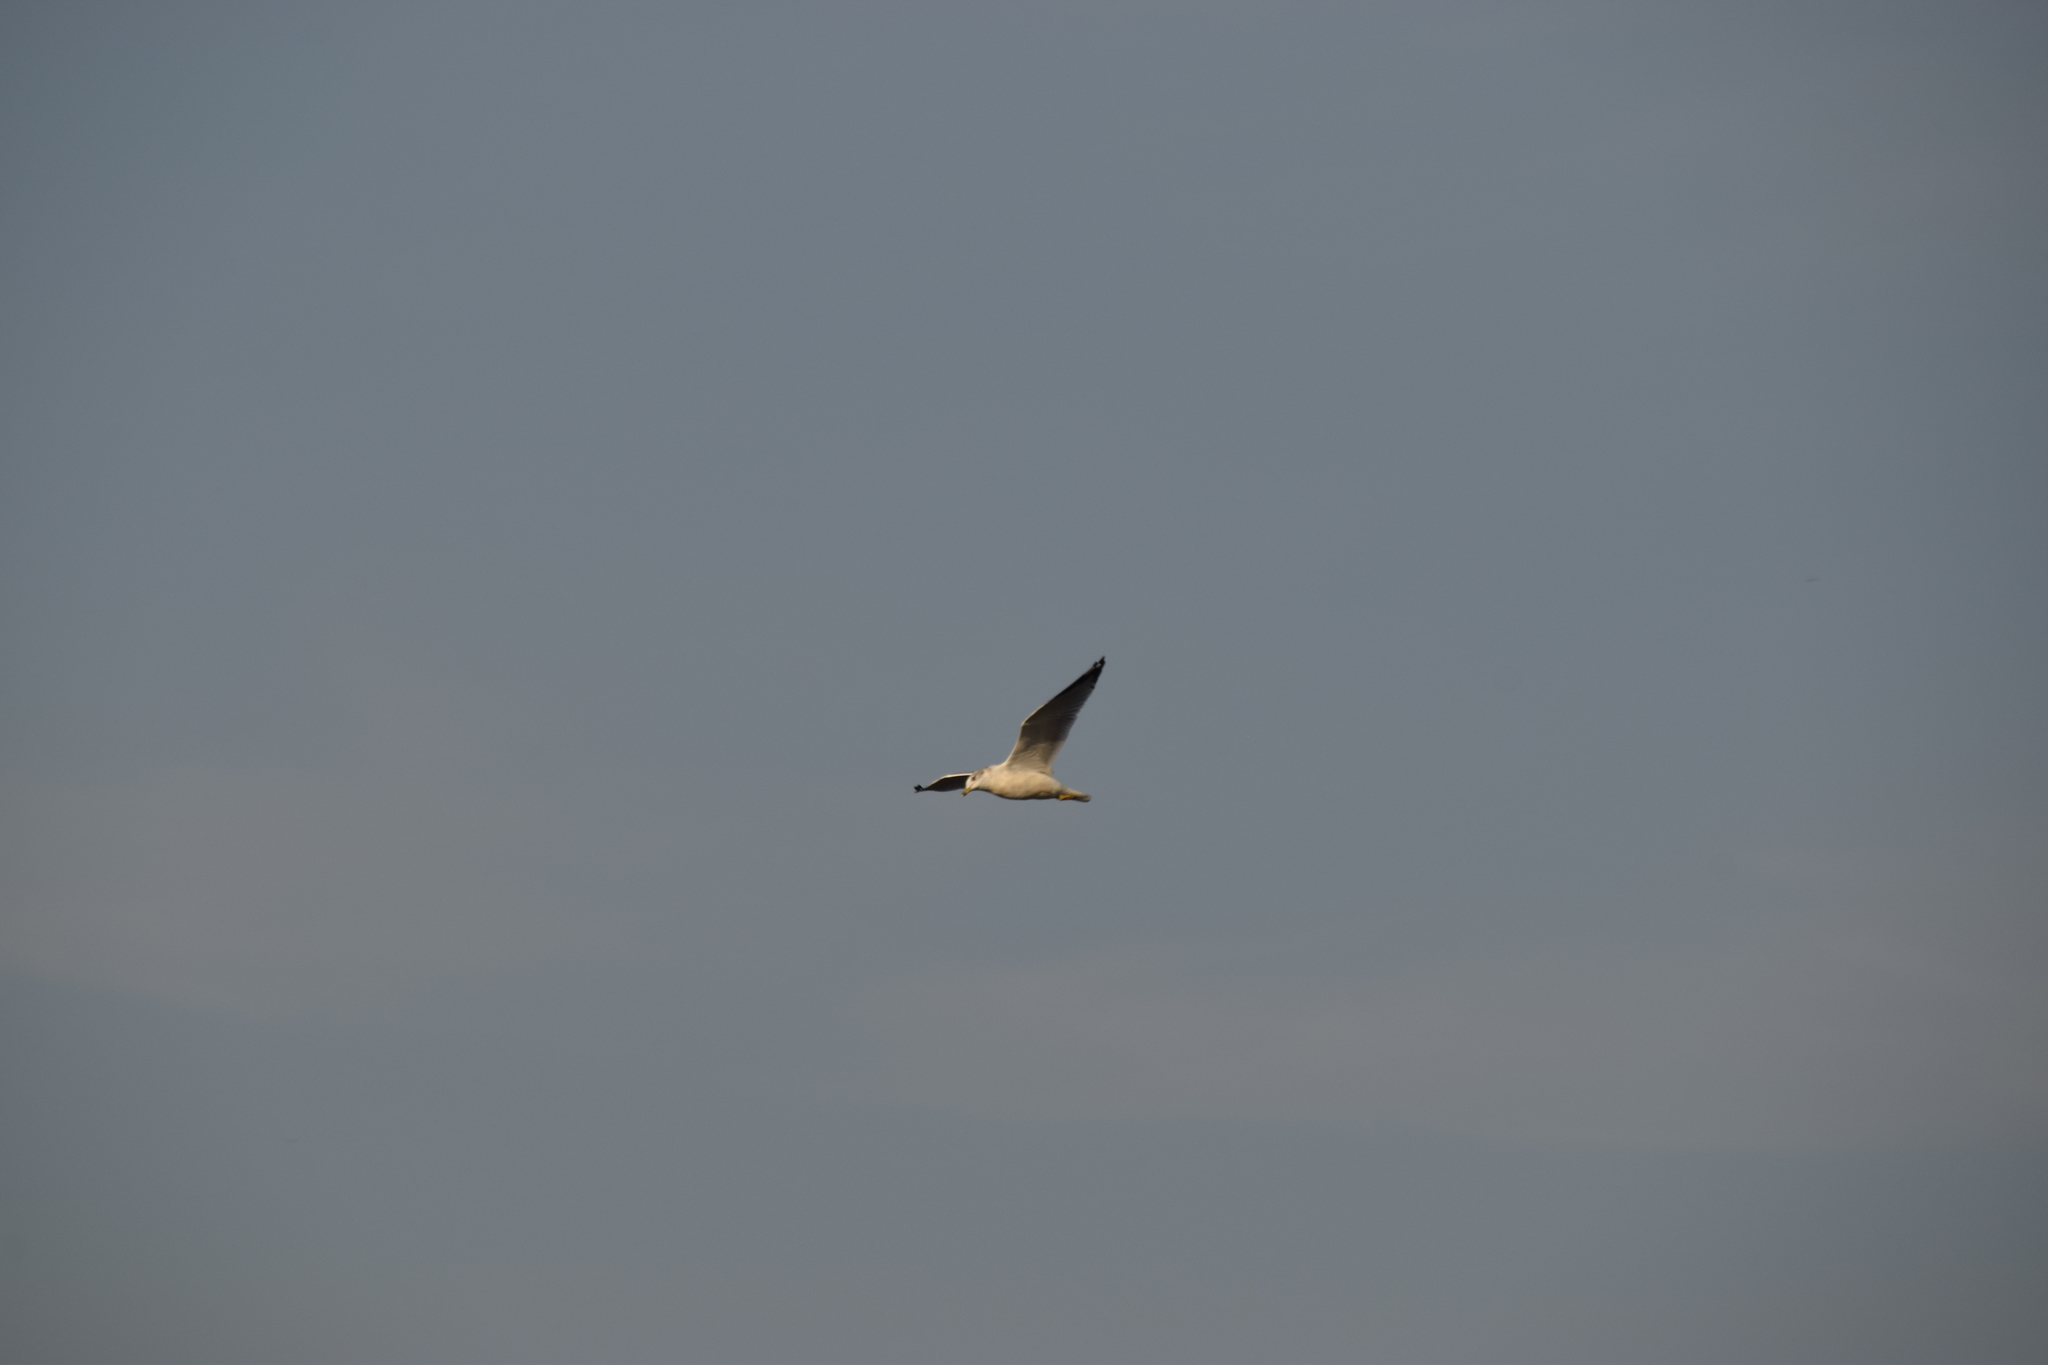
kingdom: Animalia
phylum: Chordata
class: Aves
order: Charadriiformes
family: Laridae
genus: Larus
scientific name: Larus delawarensis
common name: Ring-billed gull
